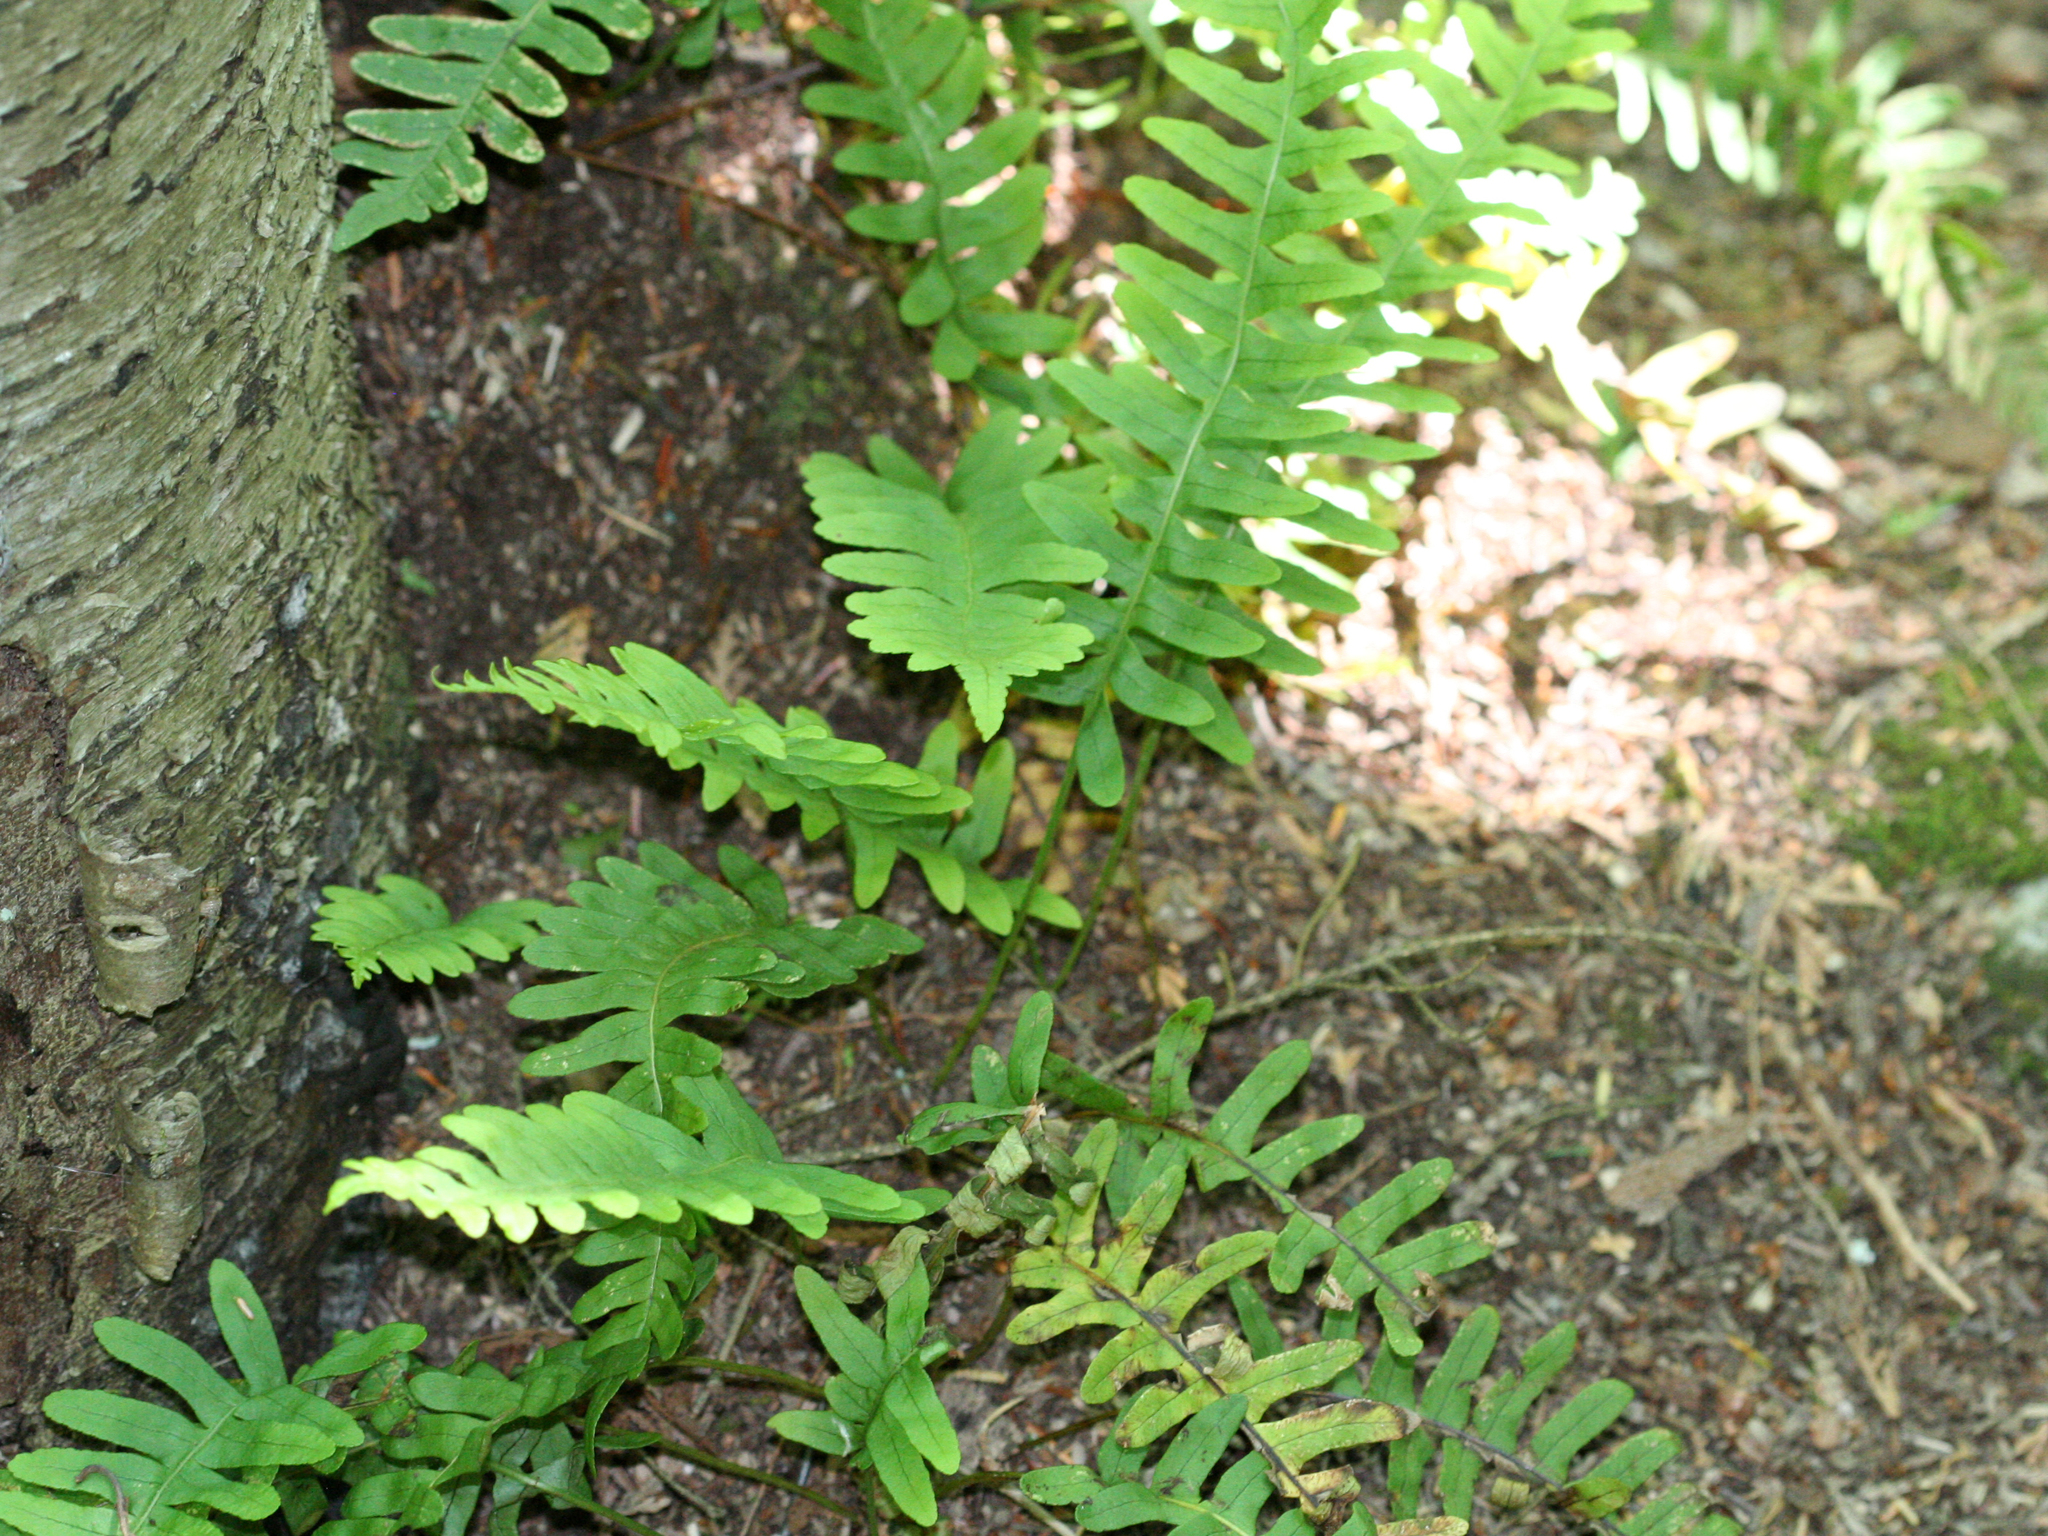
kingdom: Plantae
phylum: Tracheophyta
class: Polypodiopsida
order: Polypodiales
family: Polypodiaceae
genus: Polypodium
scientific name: Polypodium virginianum
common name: American wall fern
